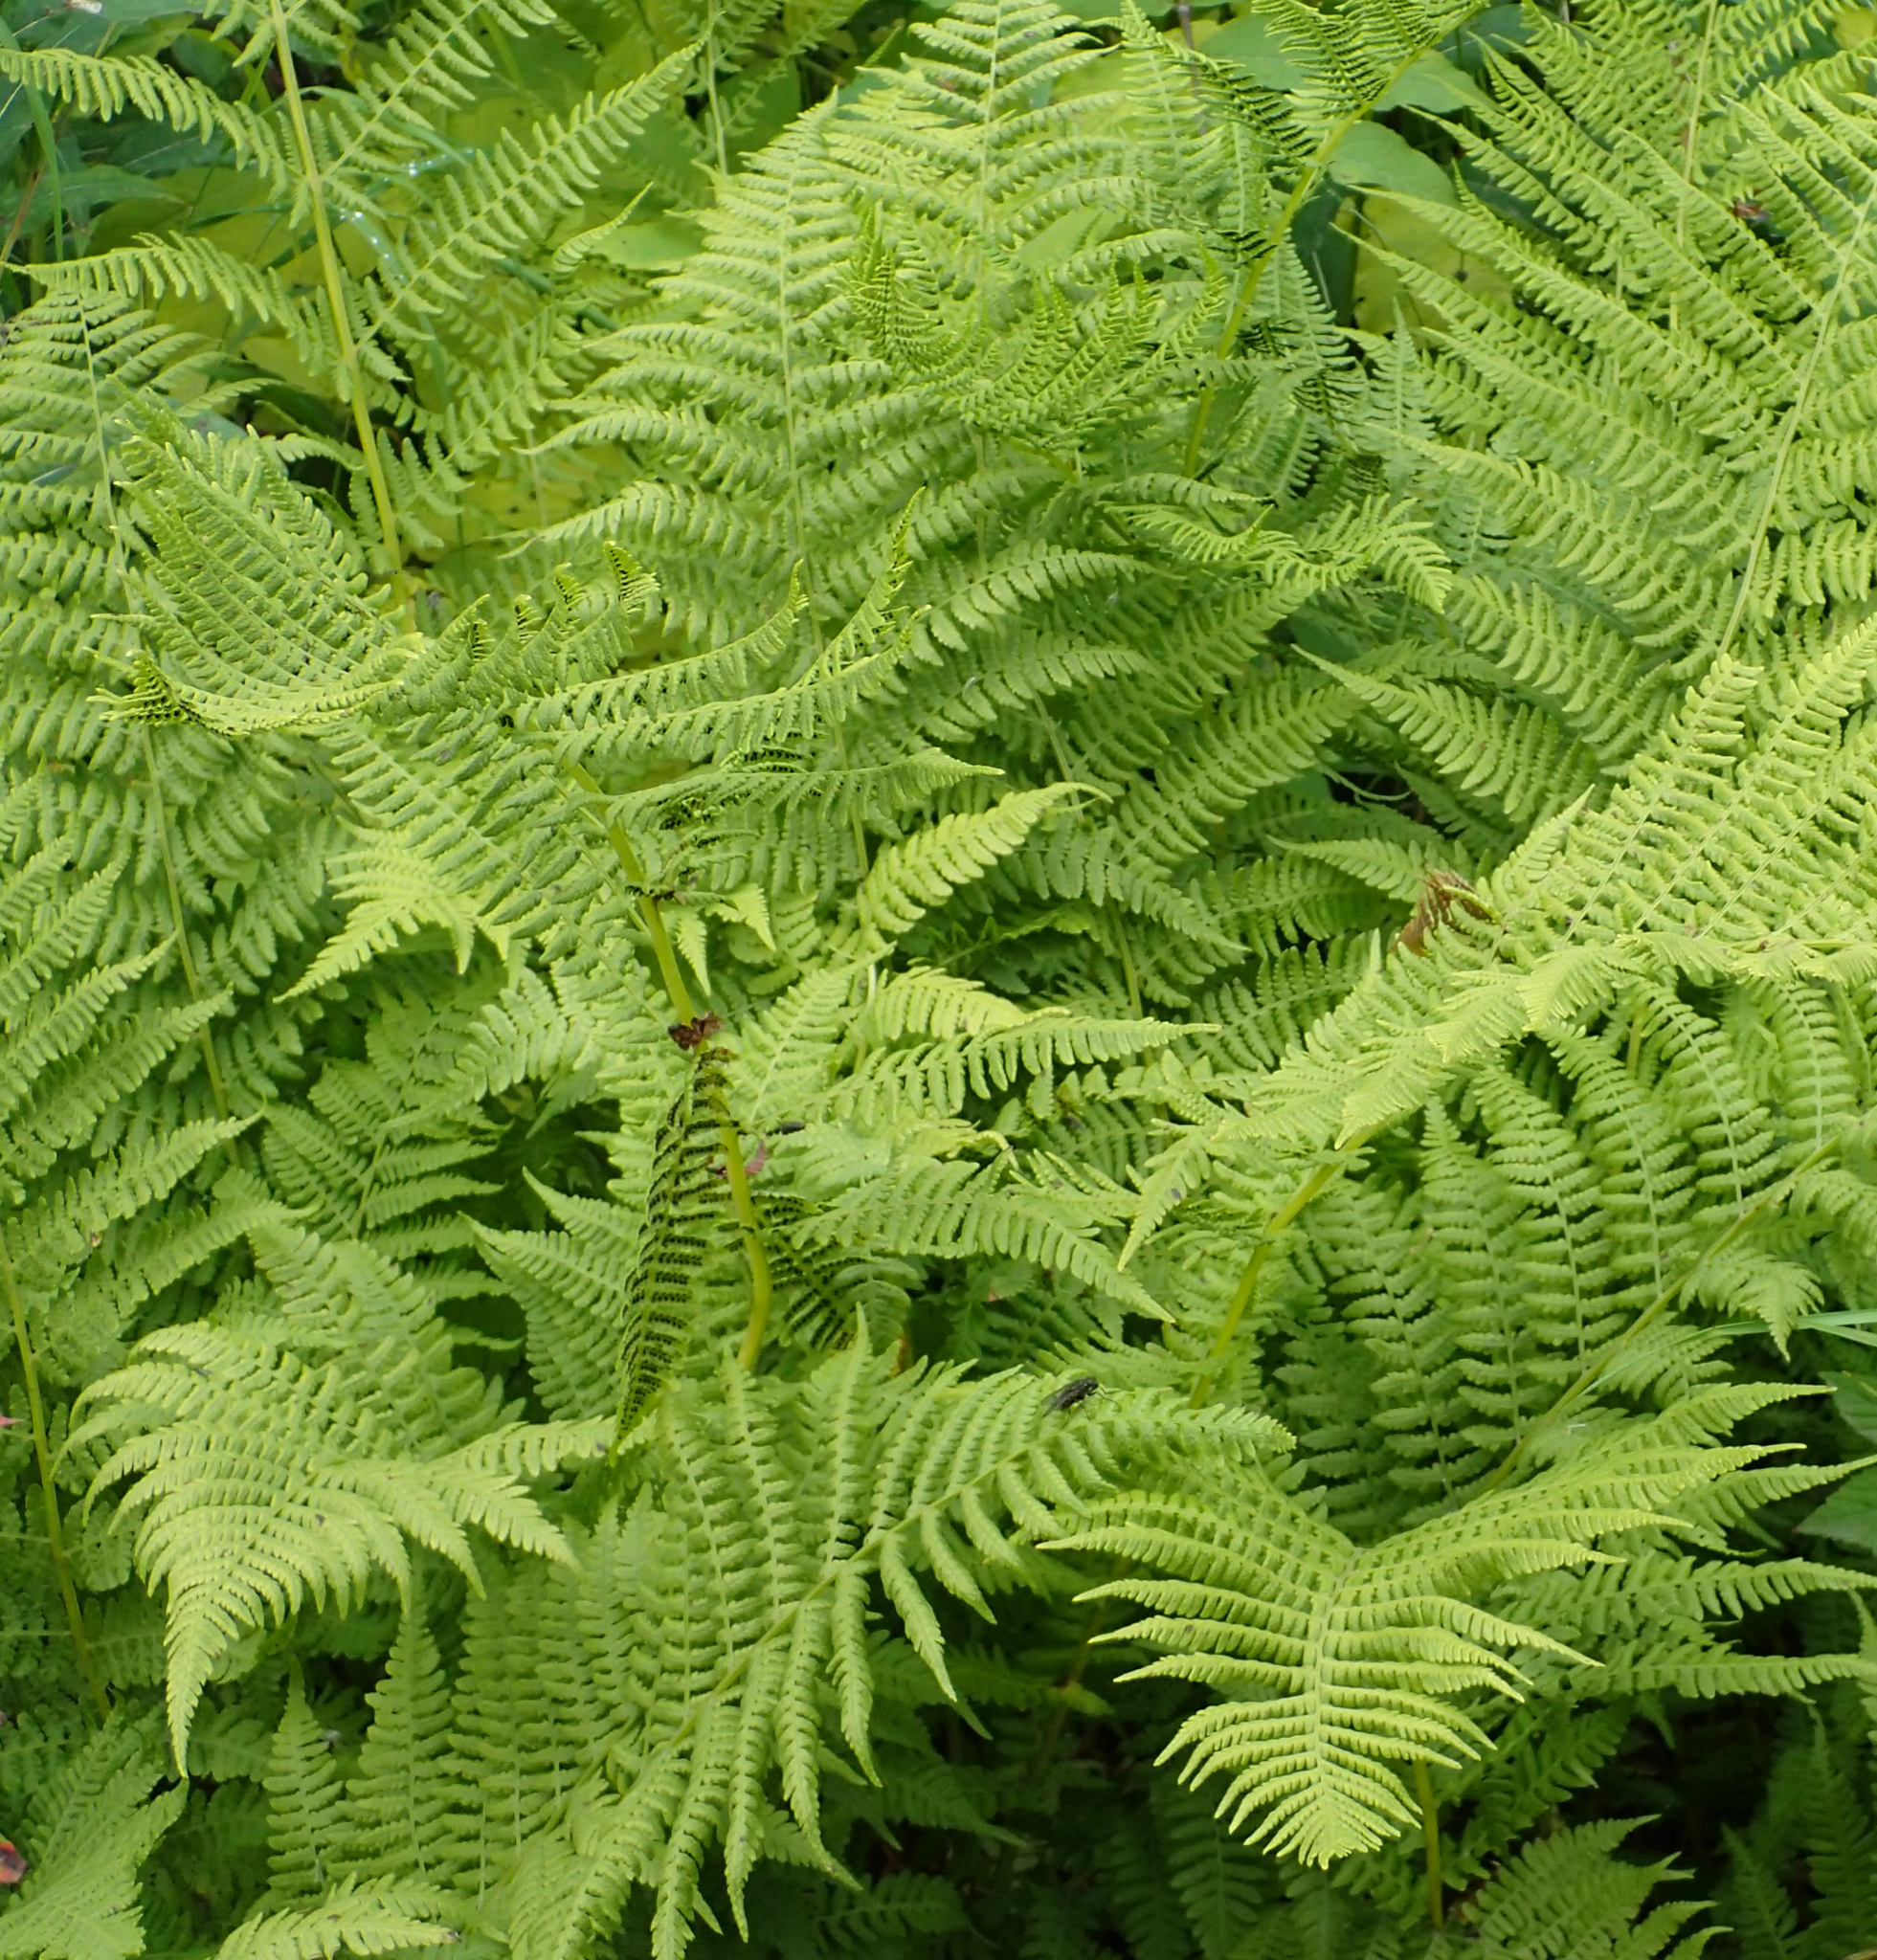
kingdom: Plantae
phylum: Tracheophyta
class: Polypodiopsida
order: Polypodiales
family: Athyriaceae
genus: Athyrium
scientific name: Athyrium filix-femina
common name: Lady fern
